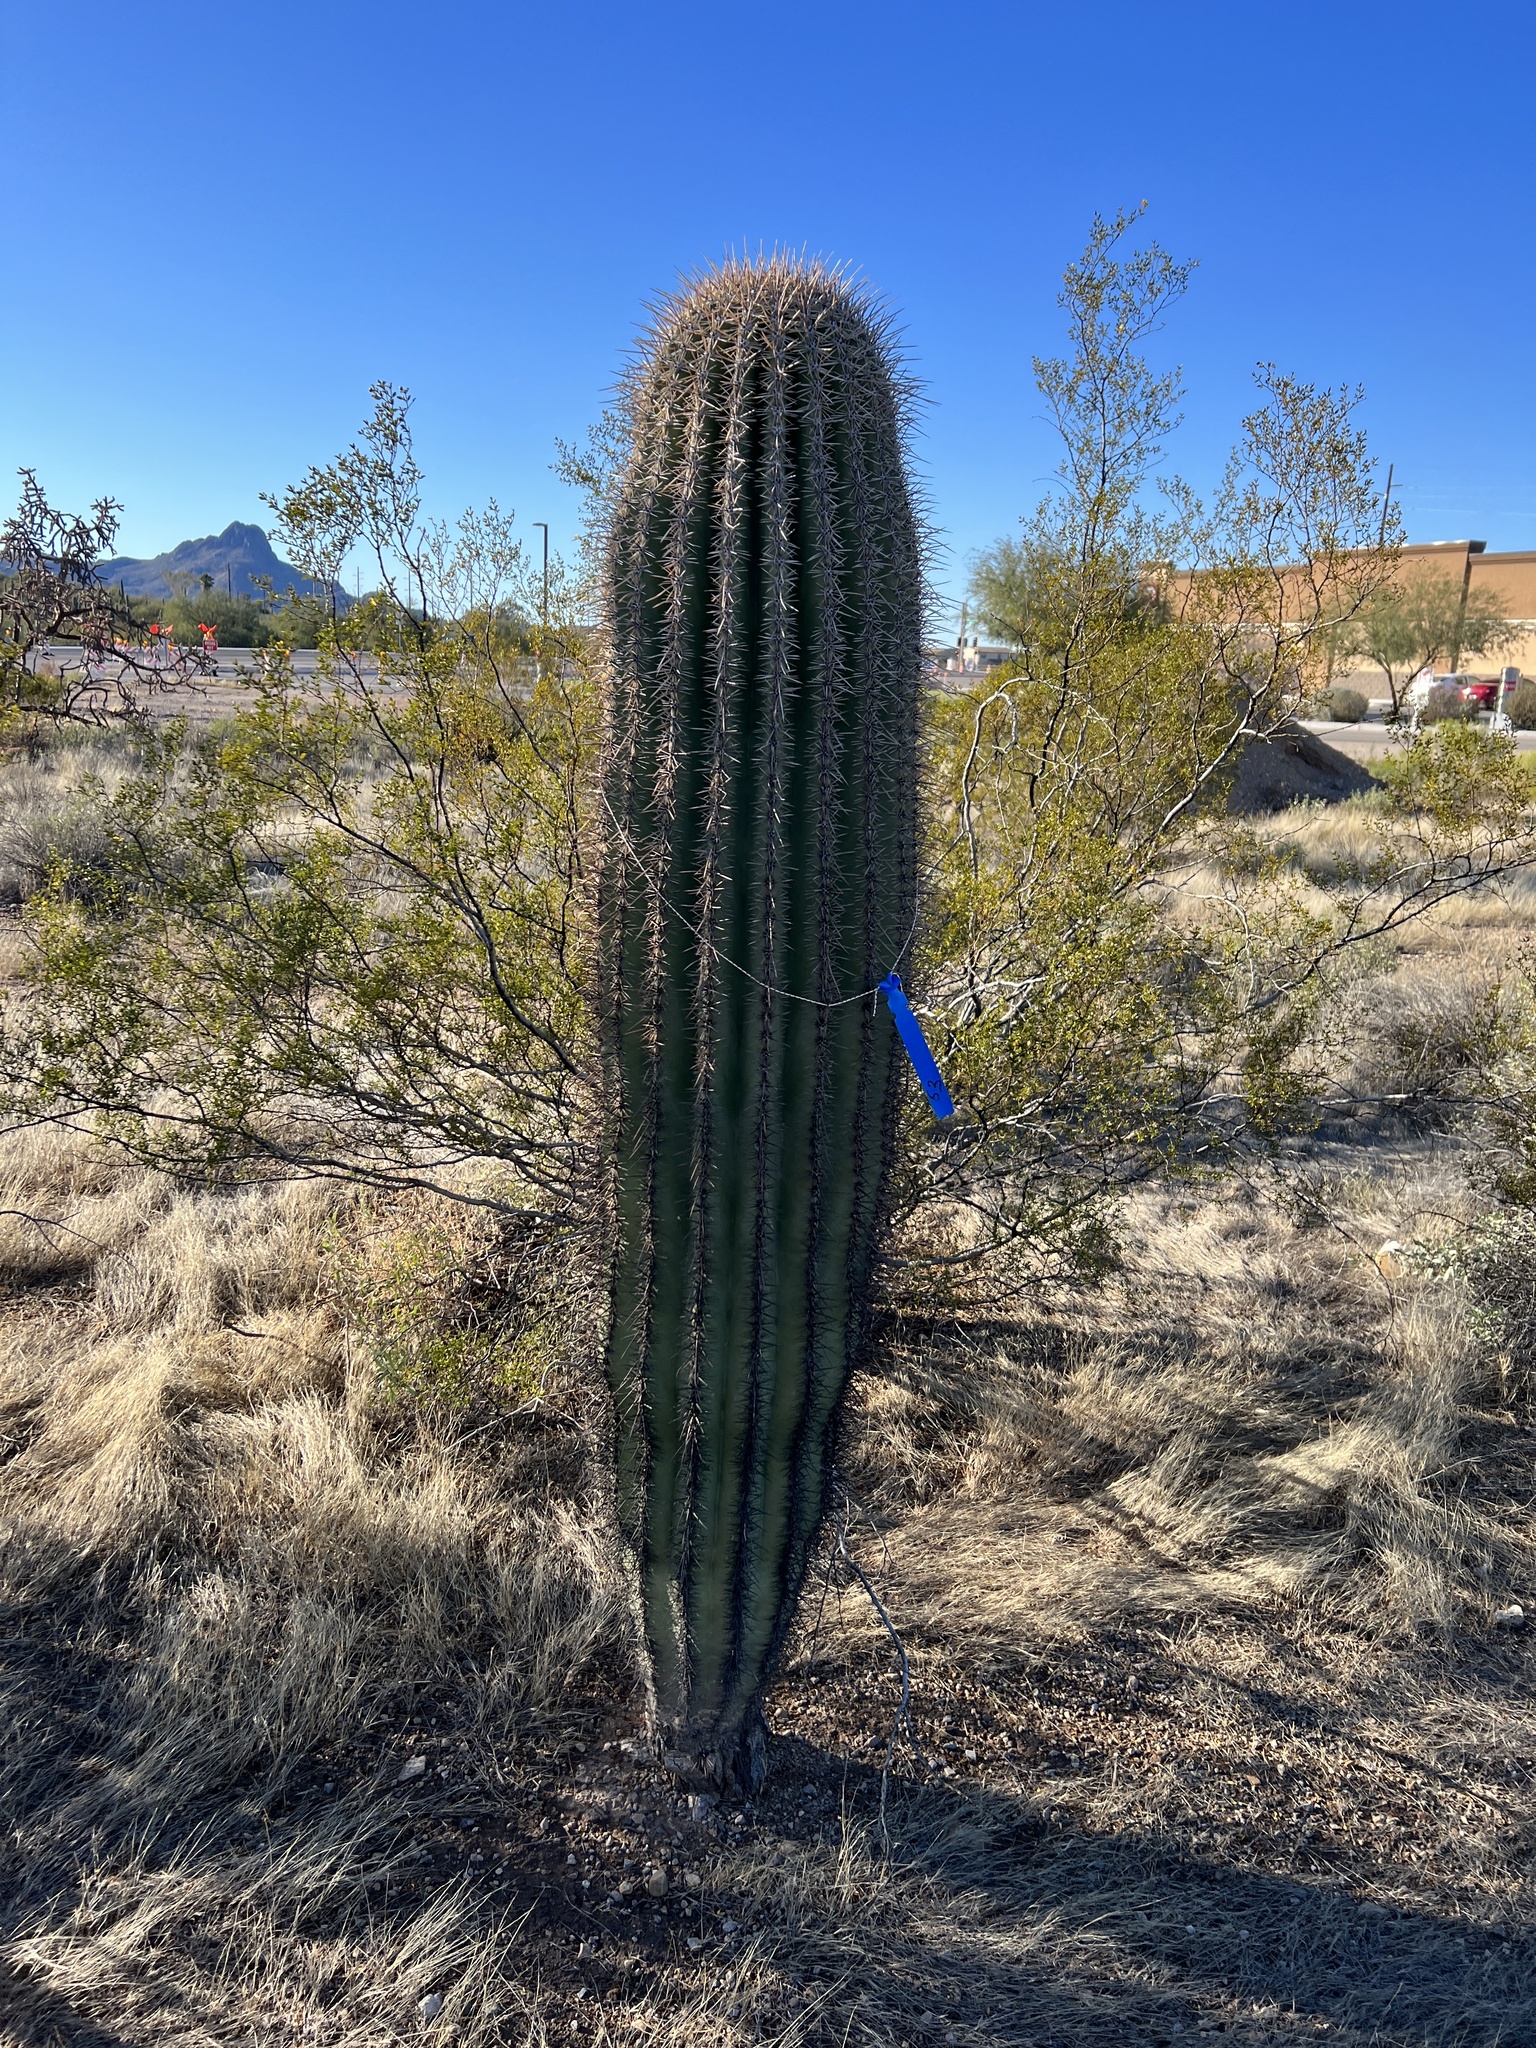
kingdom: Plantae
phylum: Tracheophyta
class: Magnoliopsida
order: Caryophyllales
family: Cactaceae
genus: Carnegiea
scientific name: Carnegiea gigantea
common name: Saguaro
